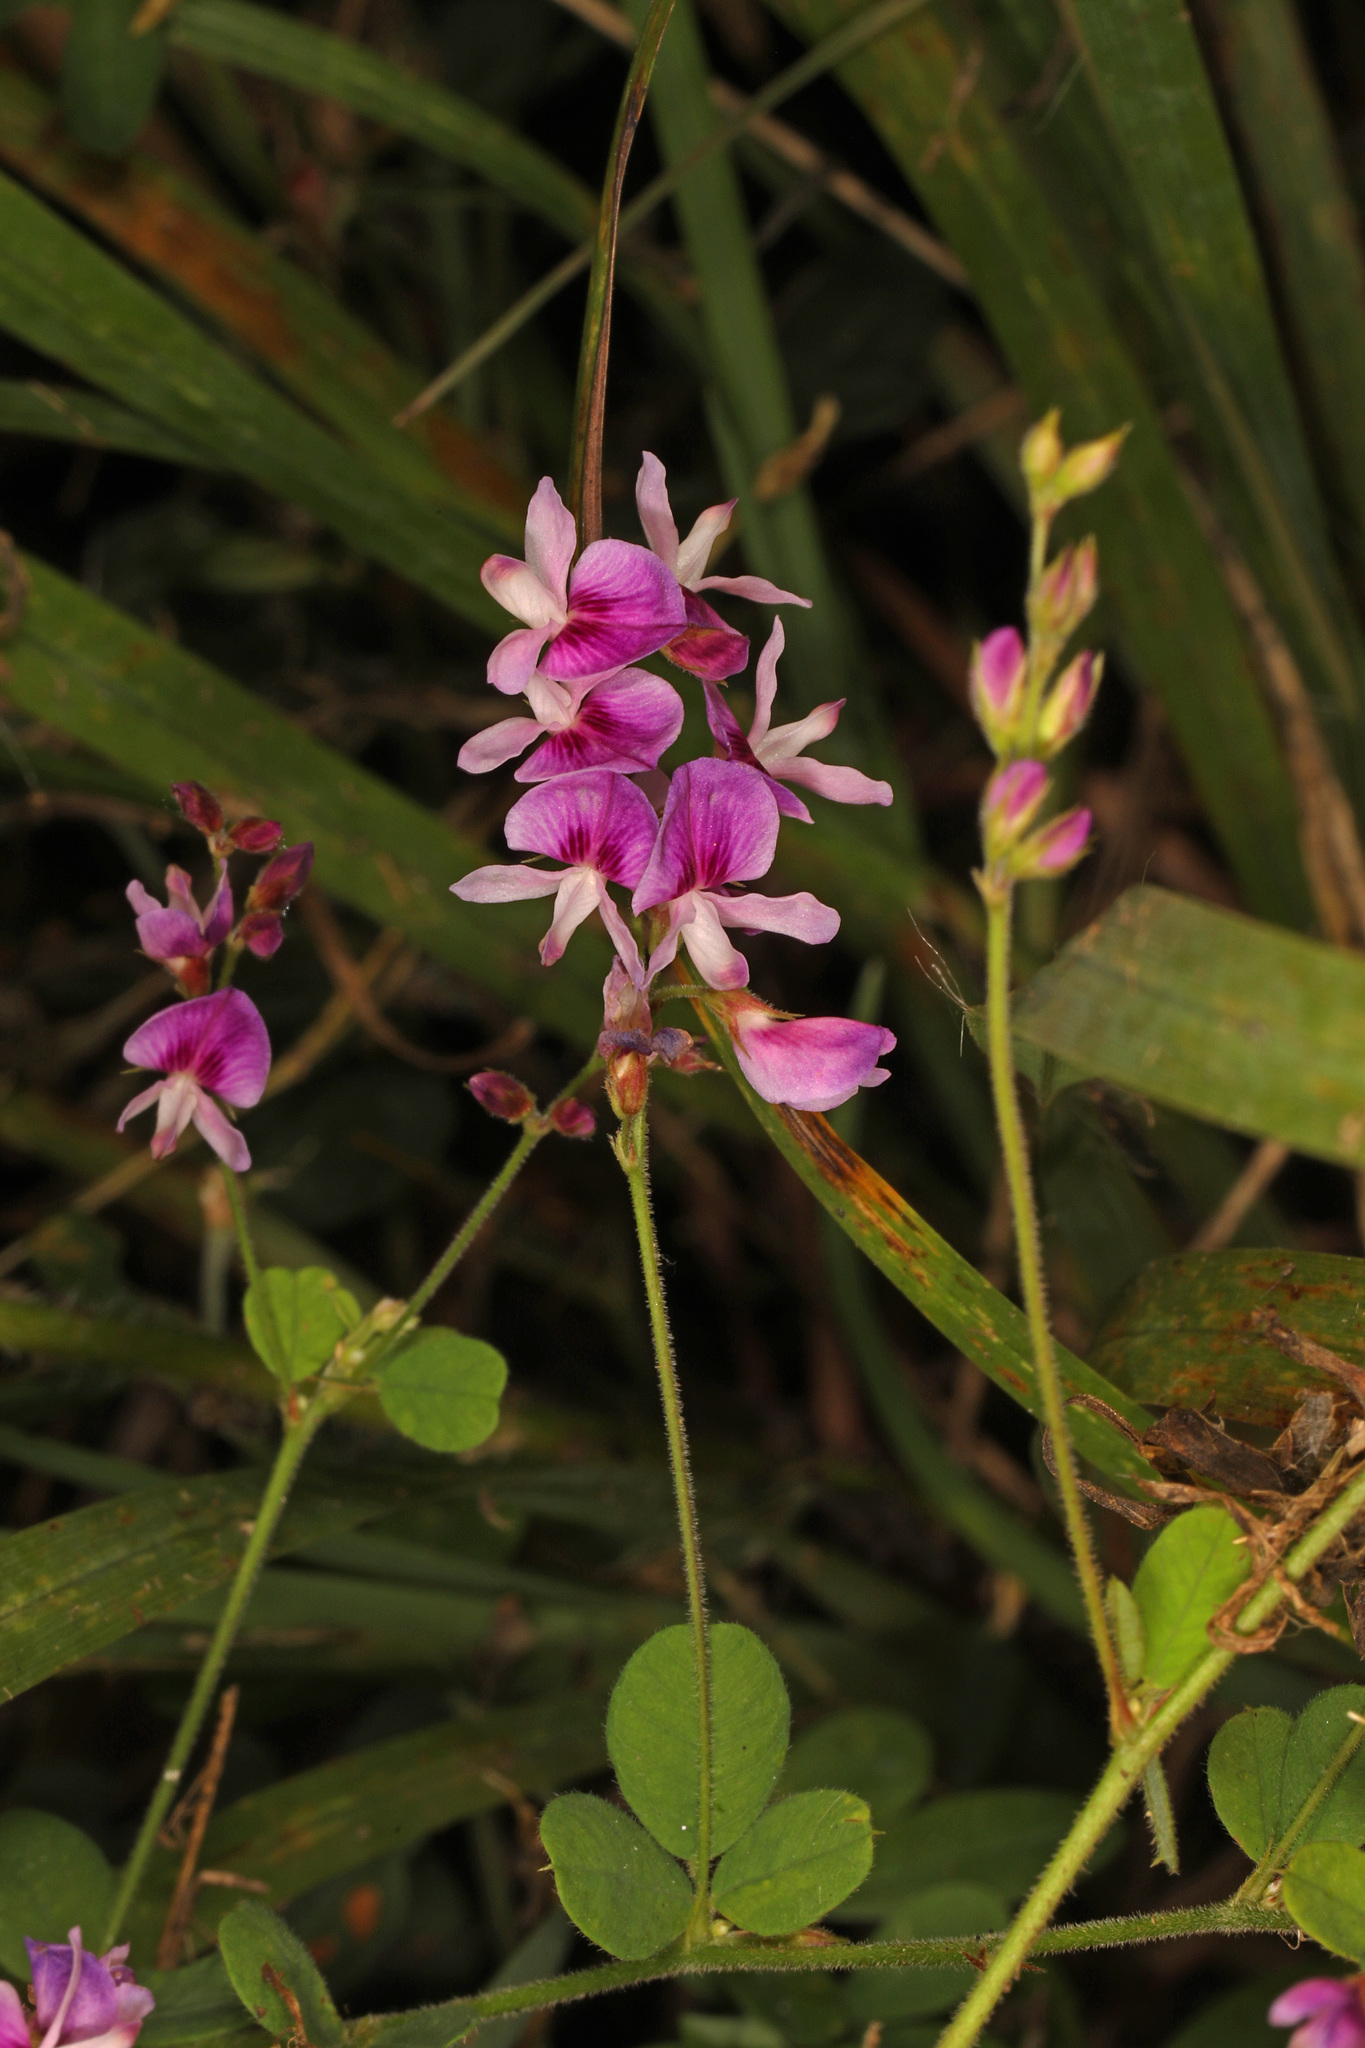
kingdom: Plantae
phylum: Tracheophyta
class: Magnoliopsida
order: Fabales
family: Fabaceae
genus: Lespedeza
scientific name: Lespedeza procumbens
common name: Downy trailing bush-clover
